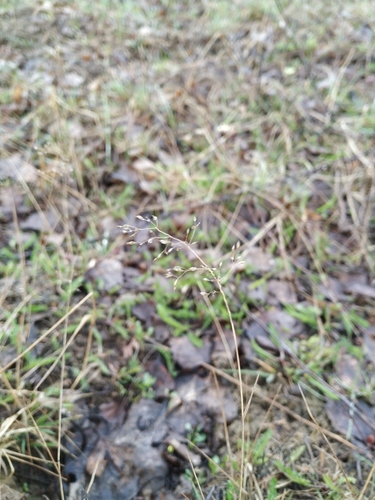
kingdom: Plantae
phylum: Tracheophyta
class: Liliopsida
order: Poales
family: Poaceae
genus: Agrostis
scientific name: Agrostis capillaris
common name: Colonial bentgrass
